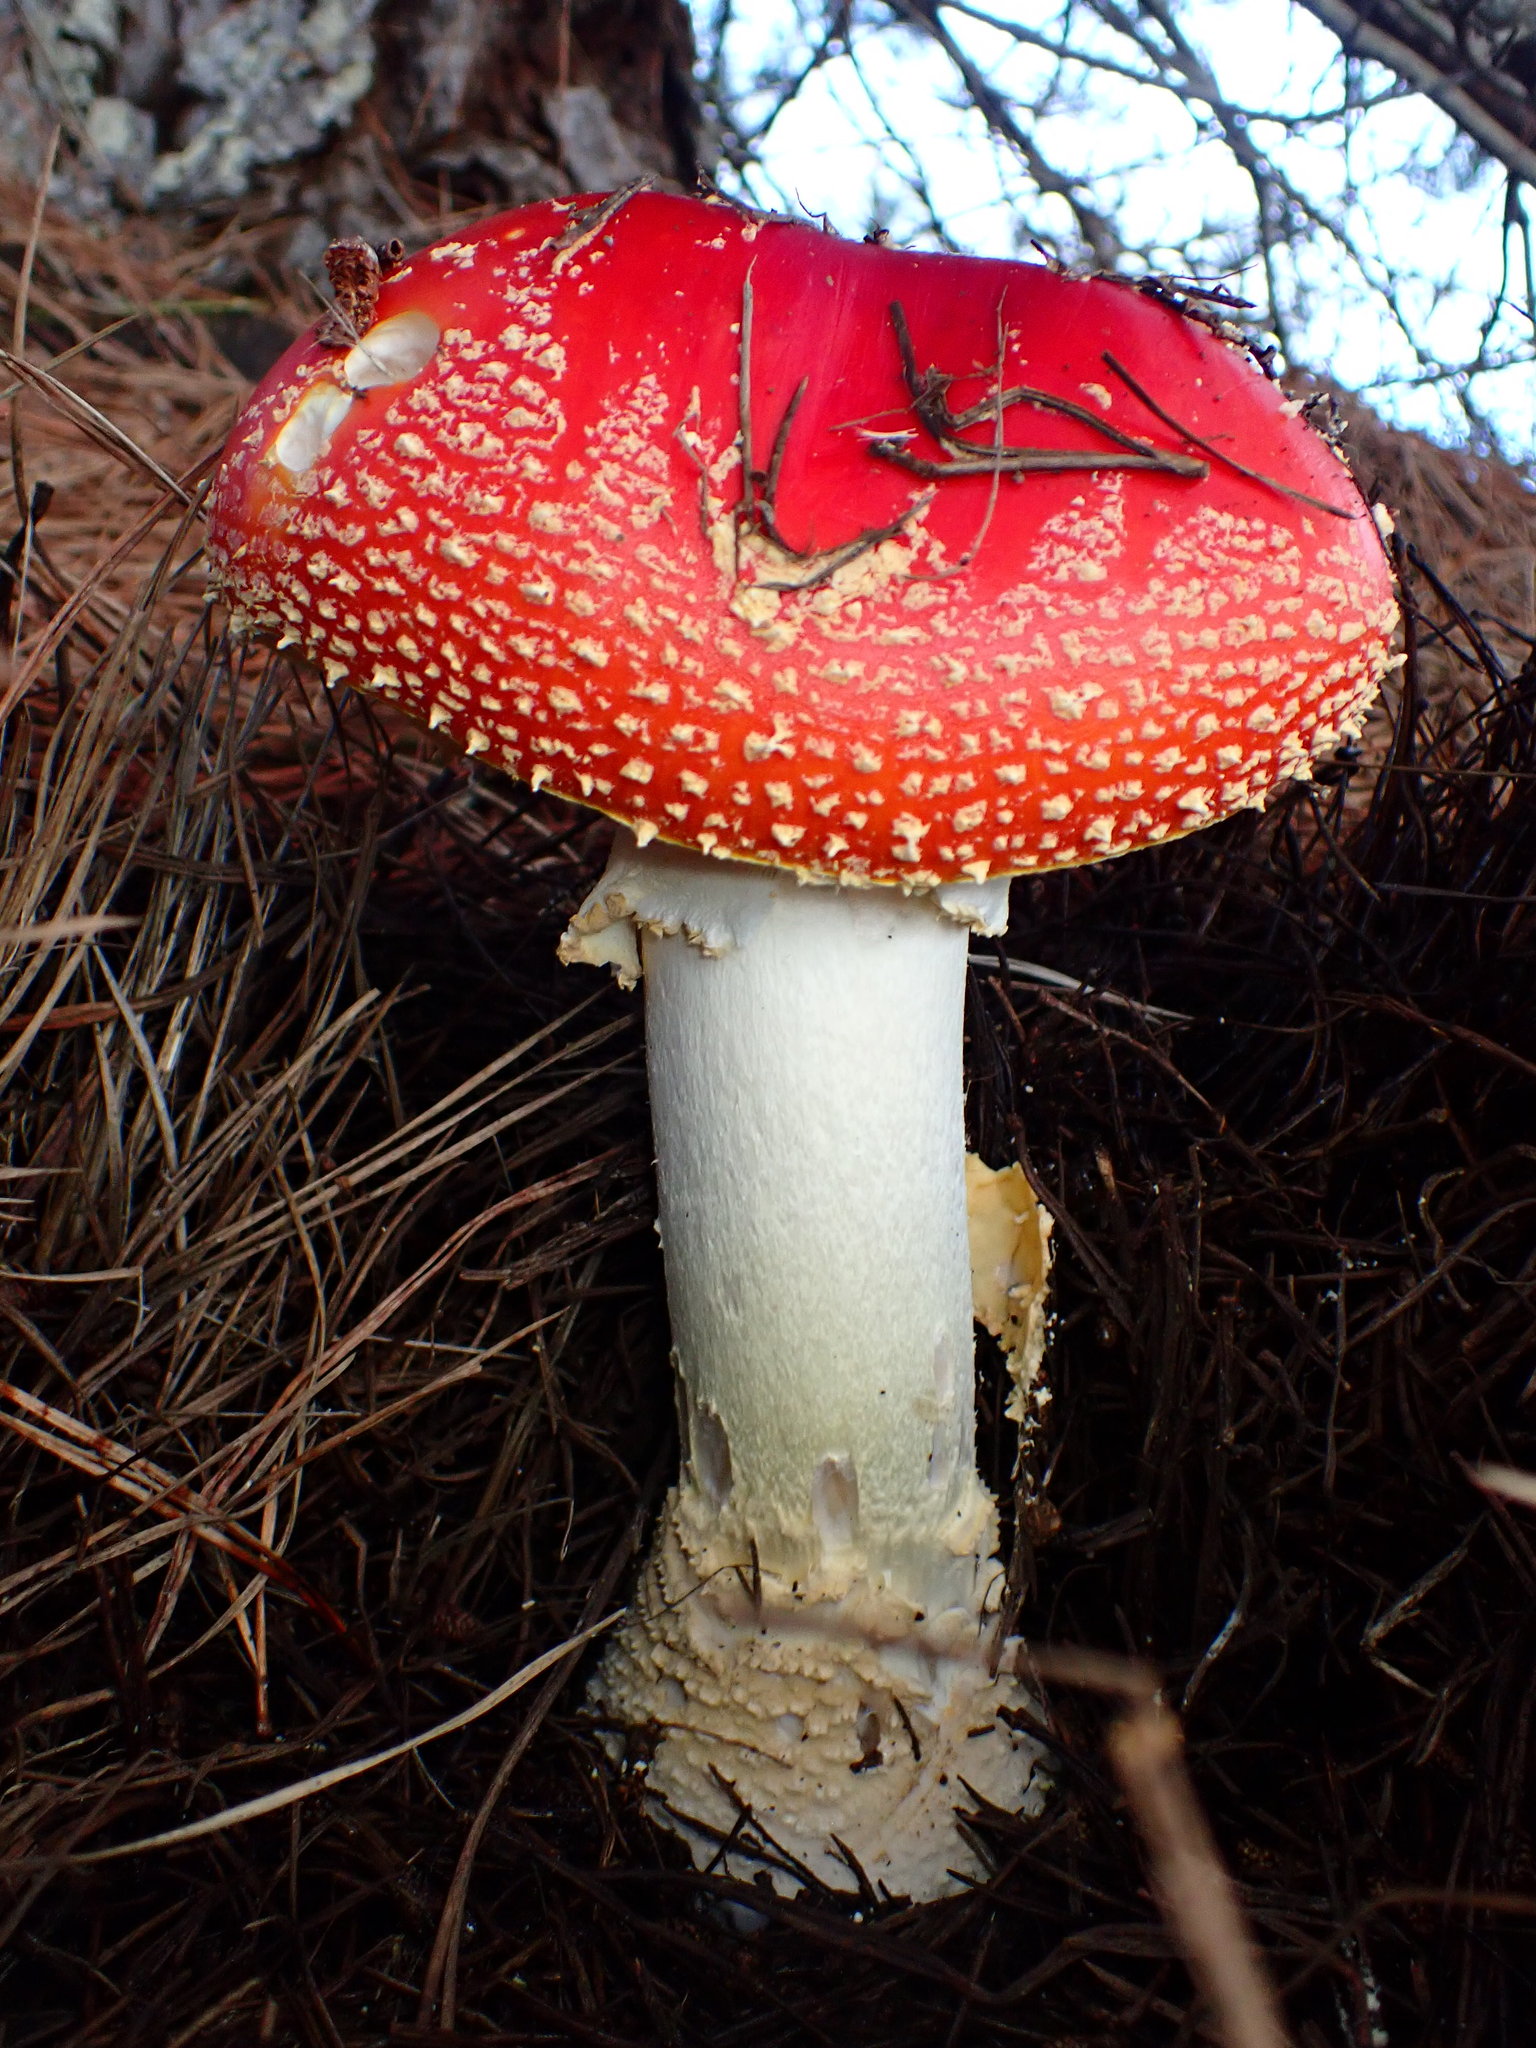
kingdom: Fungi
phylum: Basidiomycota
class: Agaricomycetes
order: Agaricales
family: Amanitaceae
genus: Amanita
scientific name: Amanita muscaria
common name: Fly agaric
